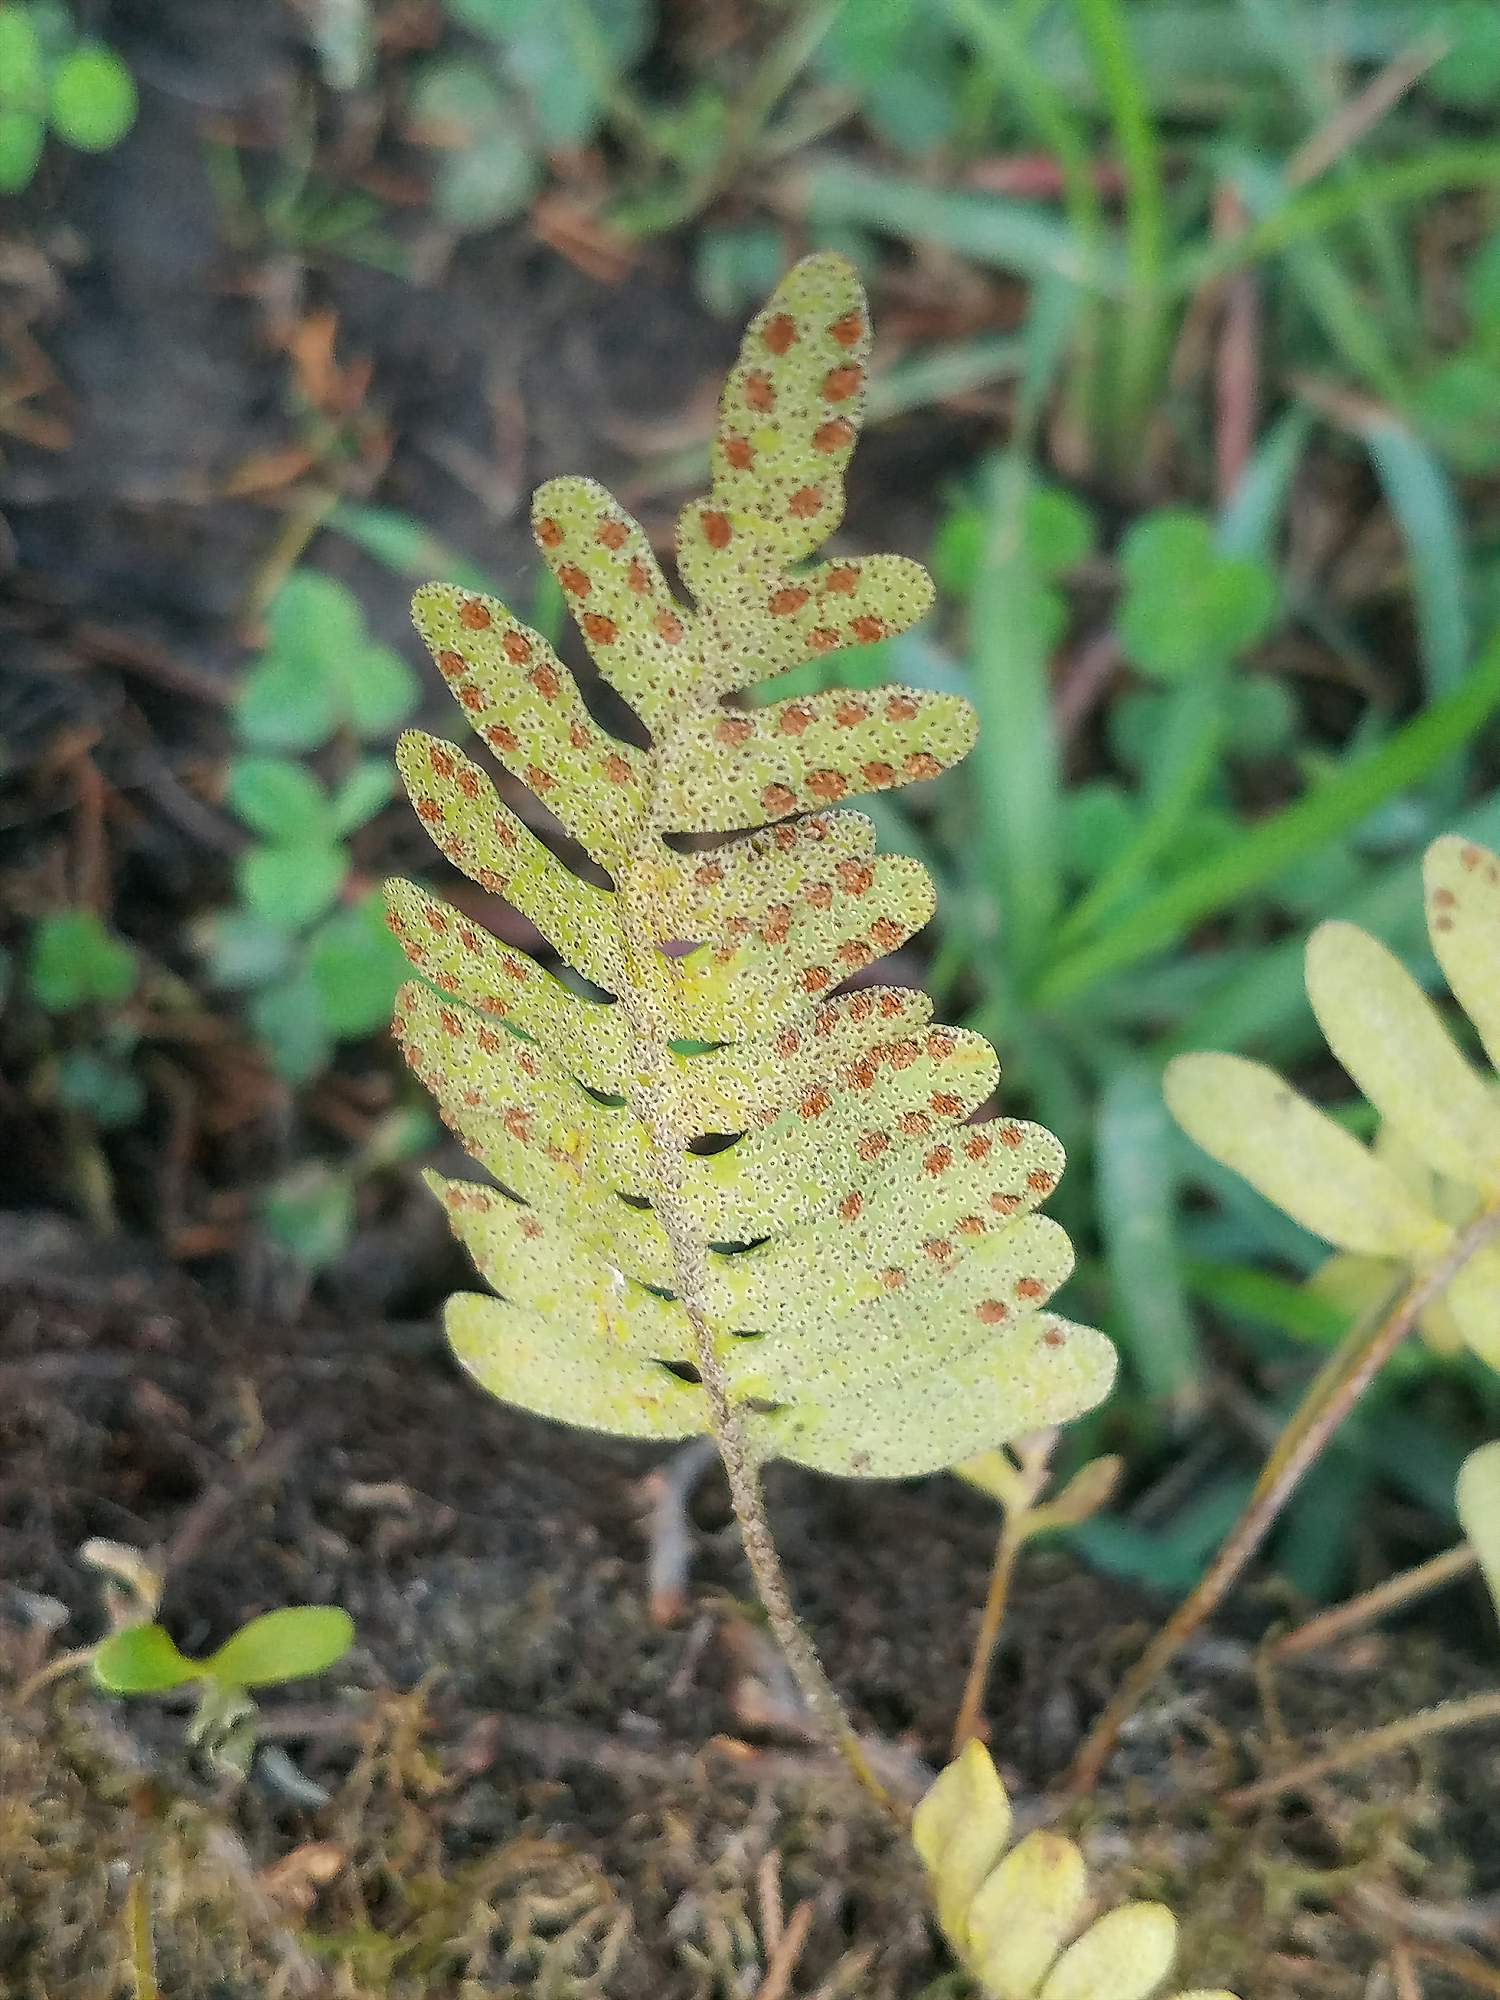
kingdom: Plantae
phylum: Tracheophyta
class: Polypodiopsida
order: Polypodiales
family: Polypodiaceae
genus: Pleopeltis
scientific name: Pleopeltis michauxiana
